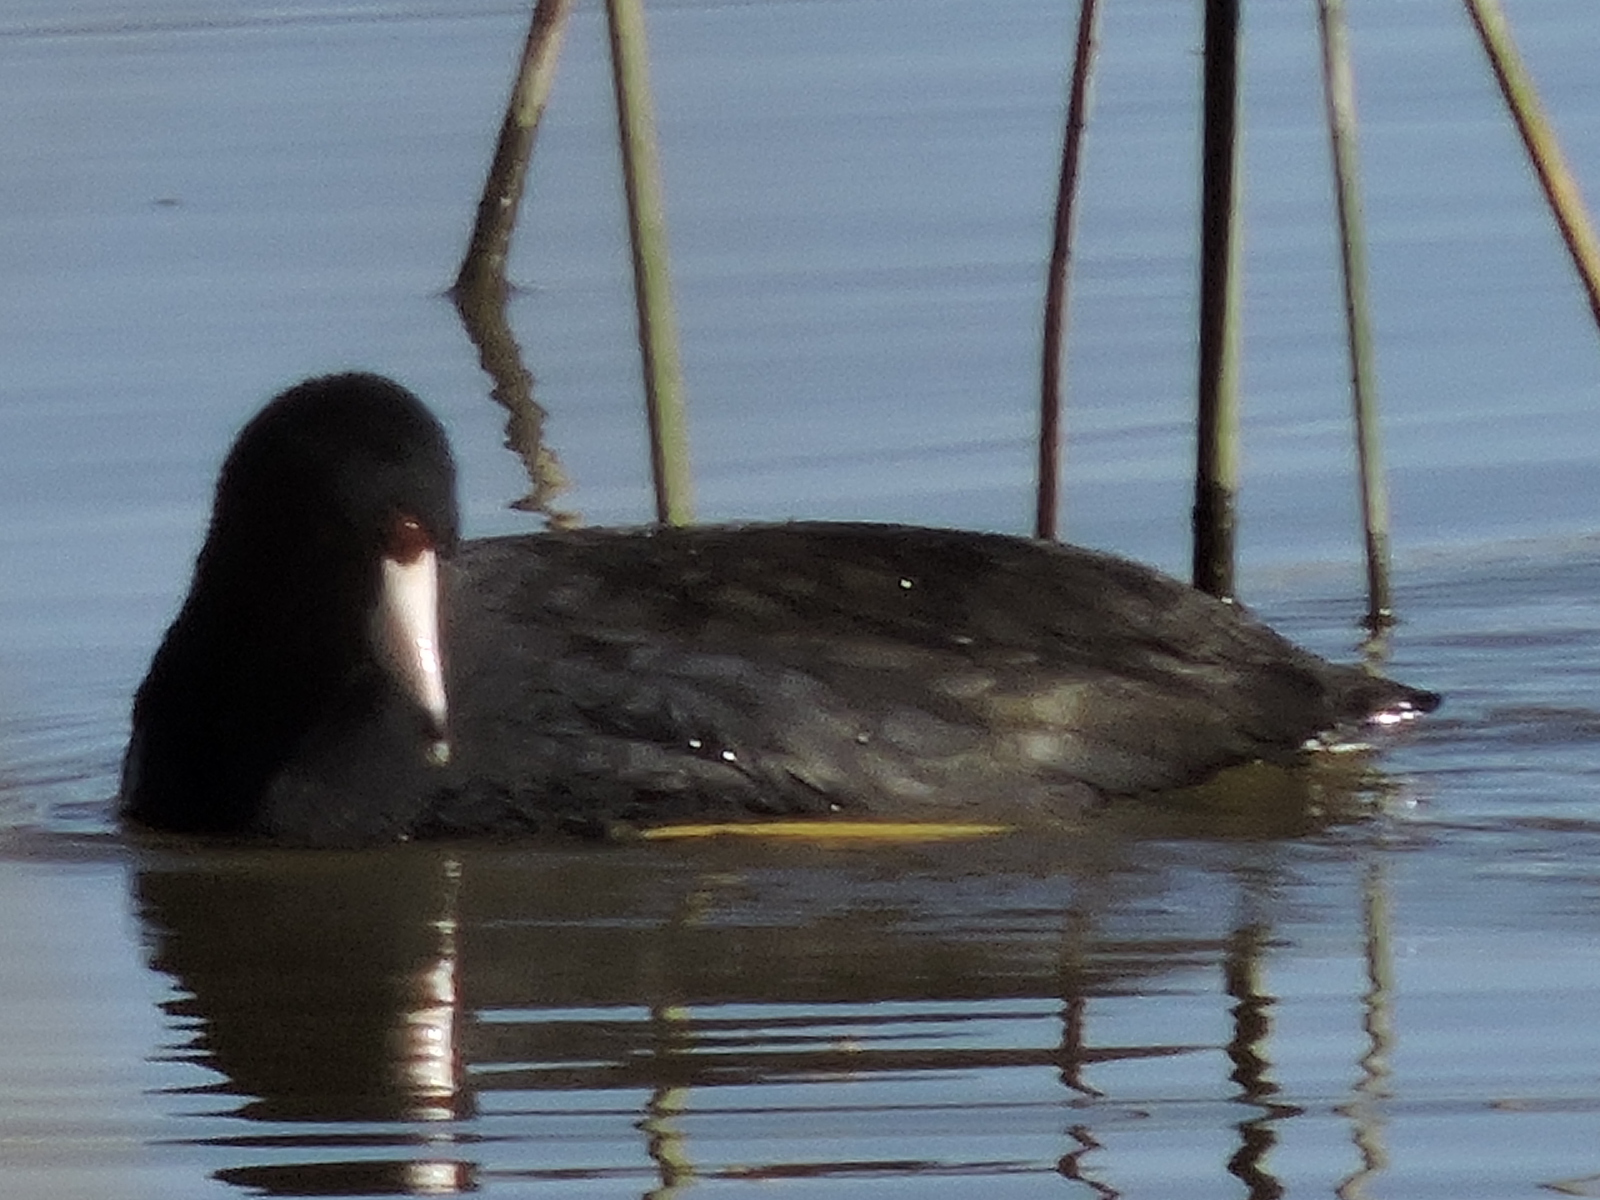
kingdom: Animalia
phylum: Chordata
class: Aves
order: Gruiformes
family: Rallidae
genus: Fulica
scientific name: Fulica americana
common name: American coot
